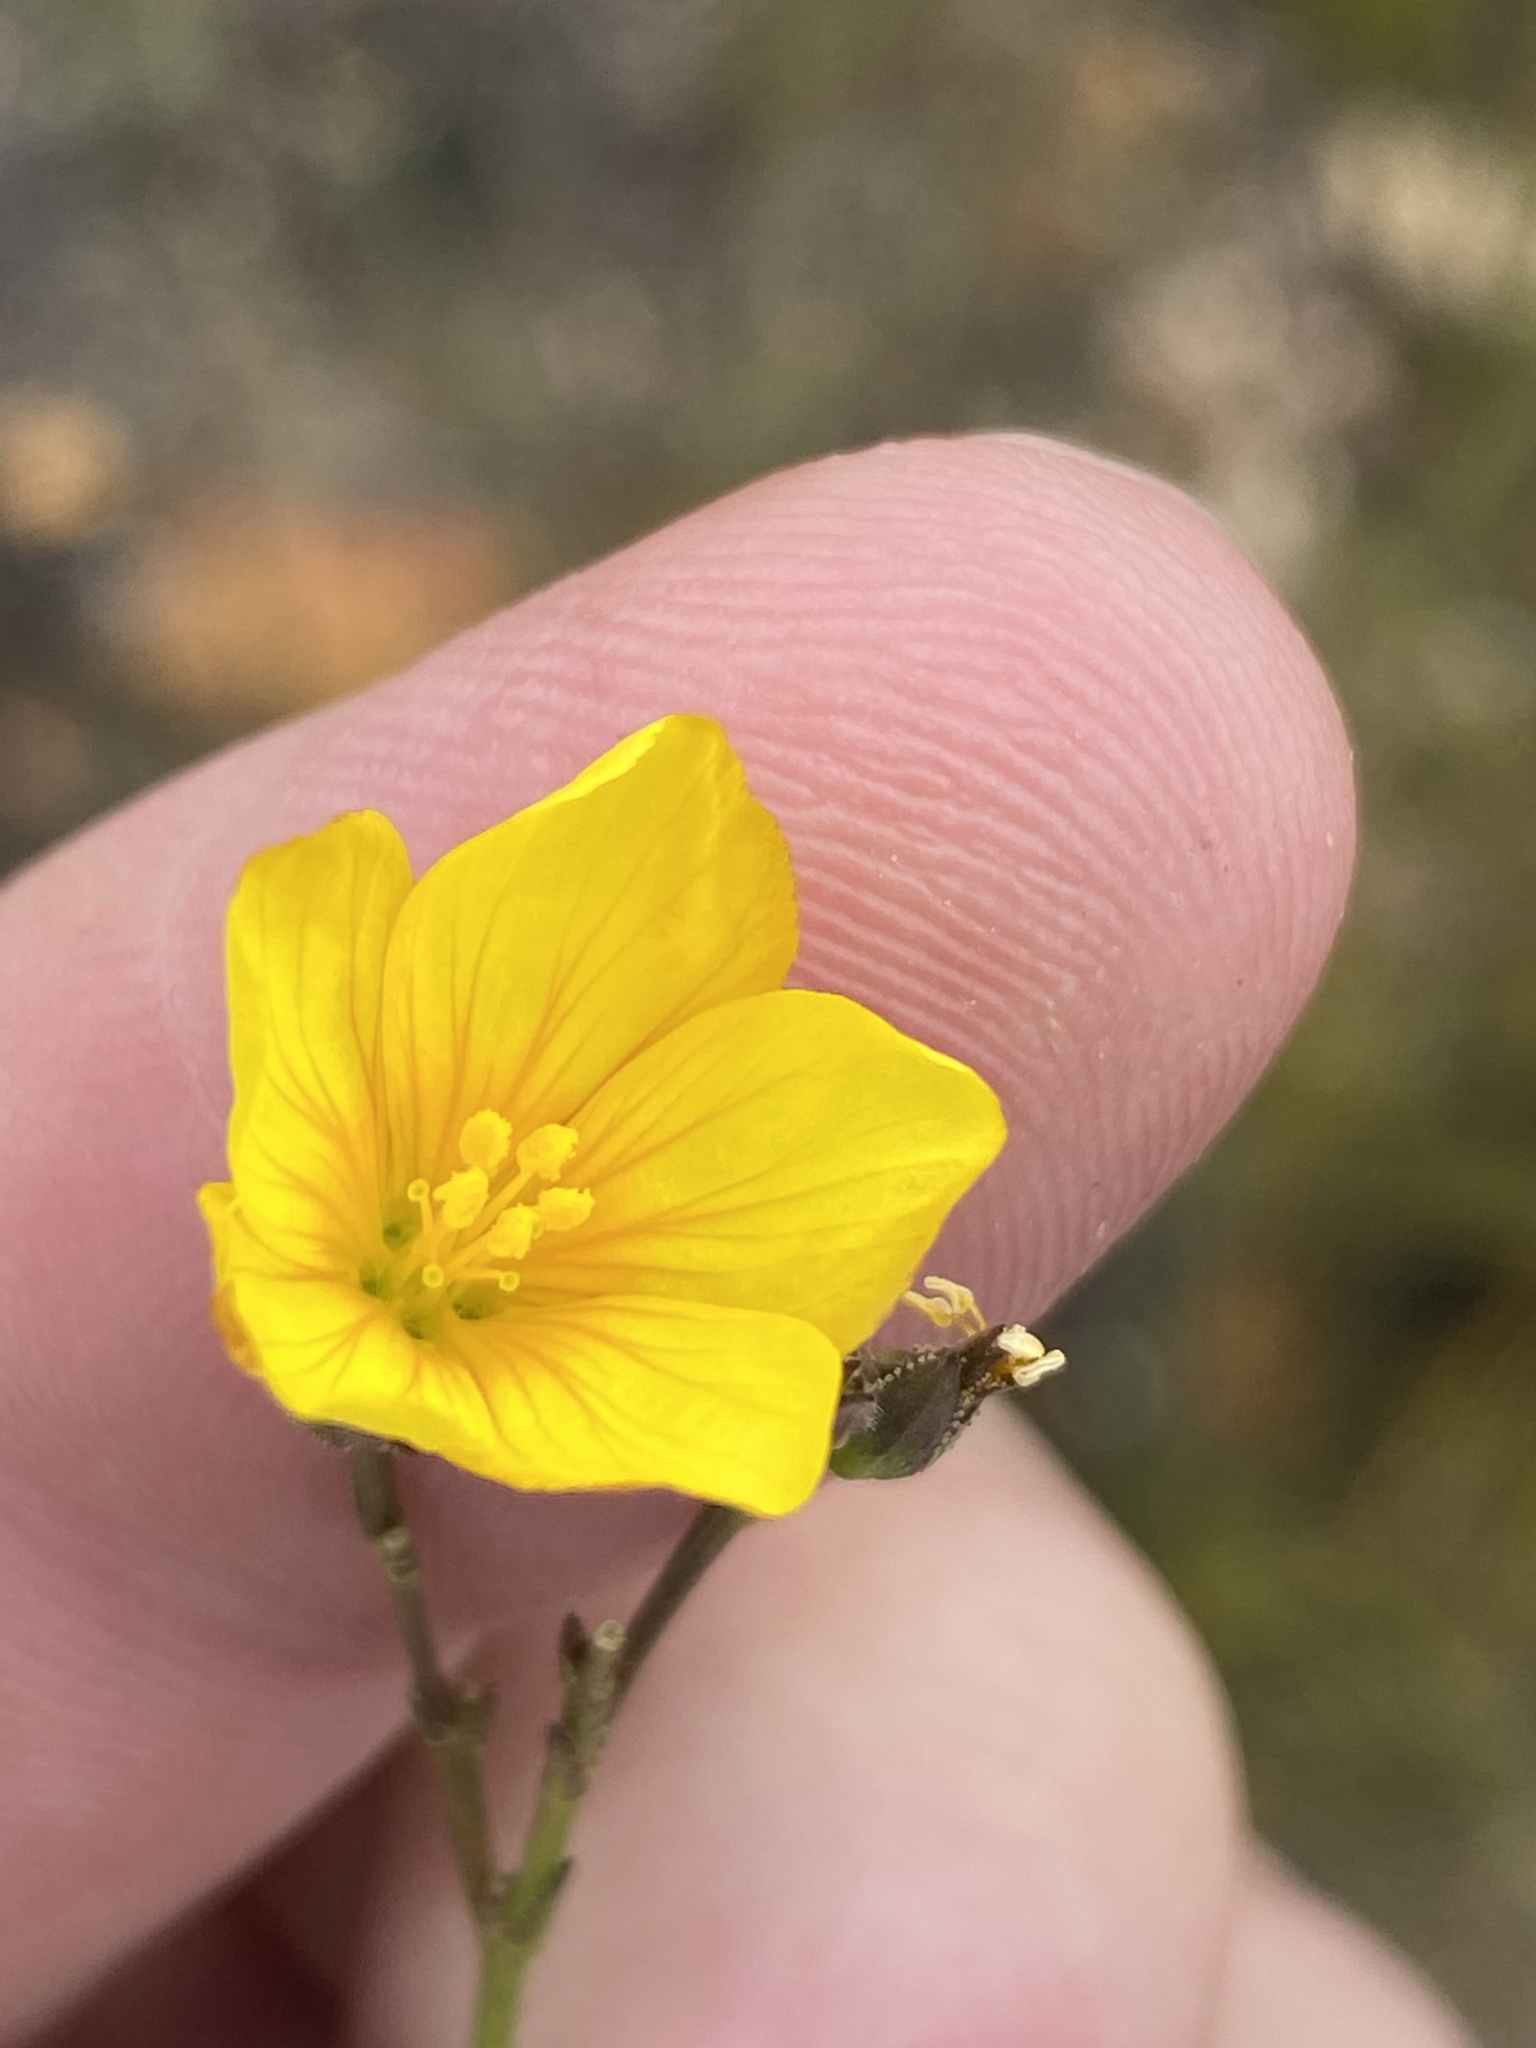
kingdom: Plantae
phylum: Tracheophyta
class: Magnoliopsida
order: Malpighiales
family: Linaceae
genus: Linum
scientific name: Linum africanum
